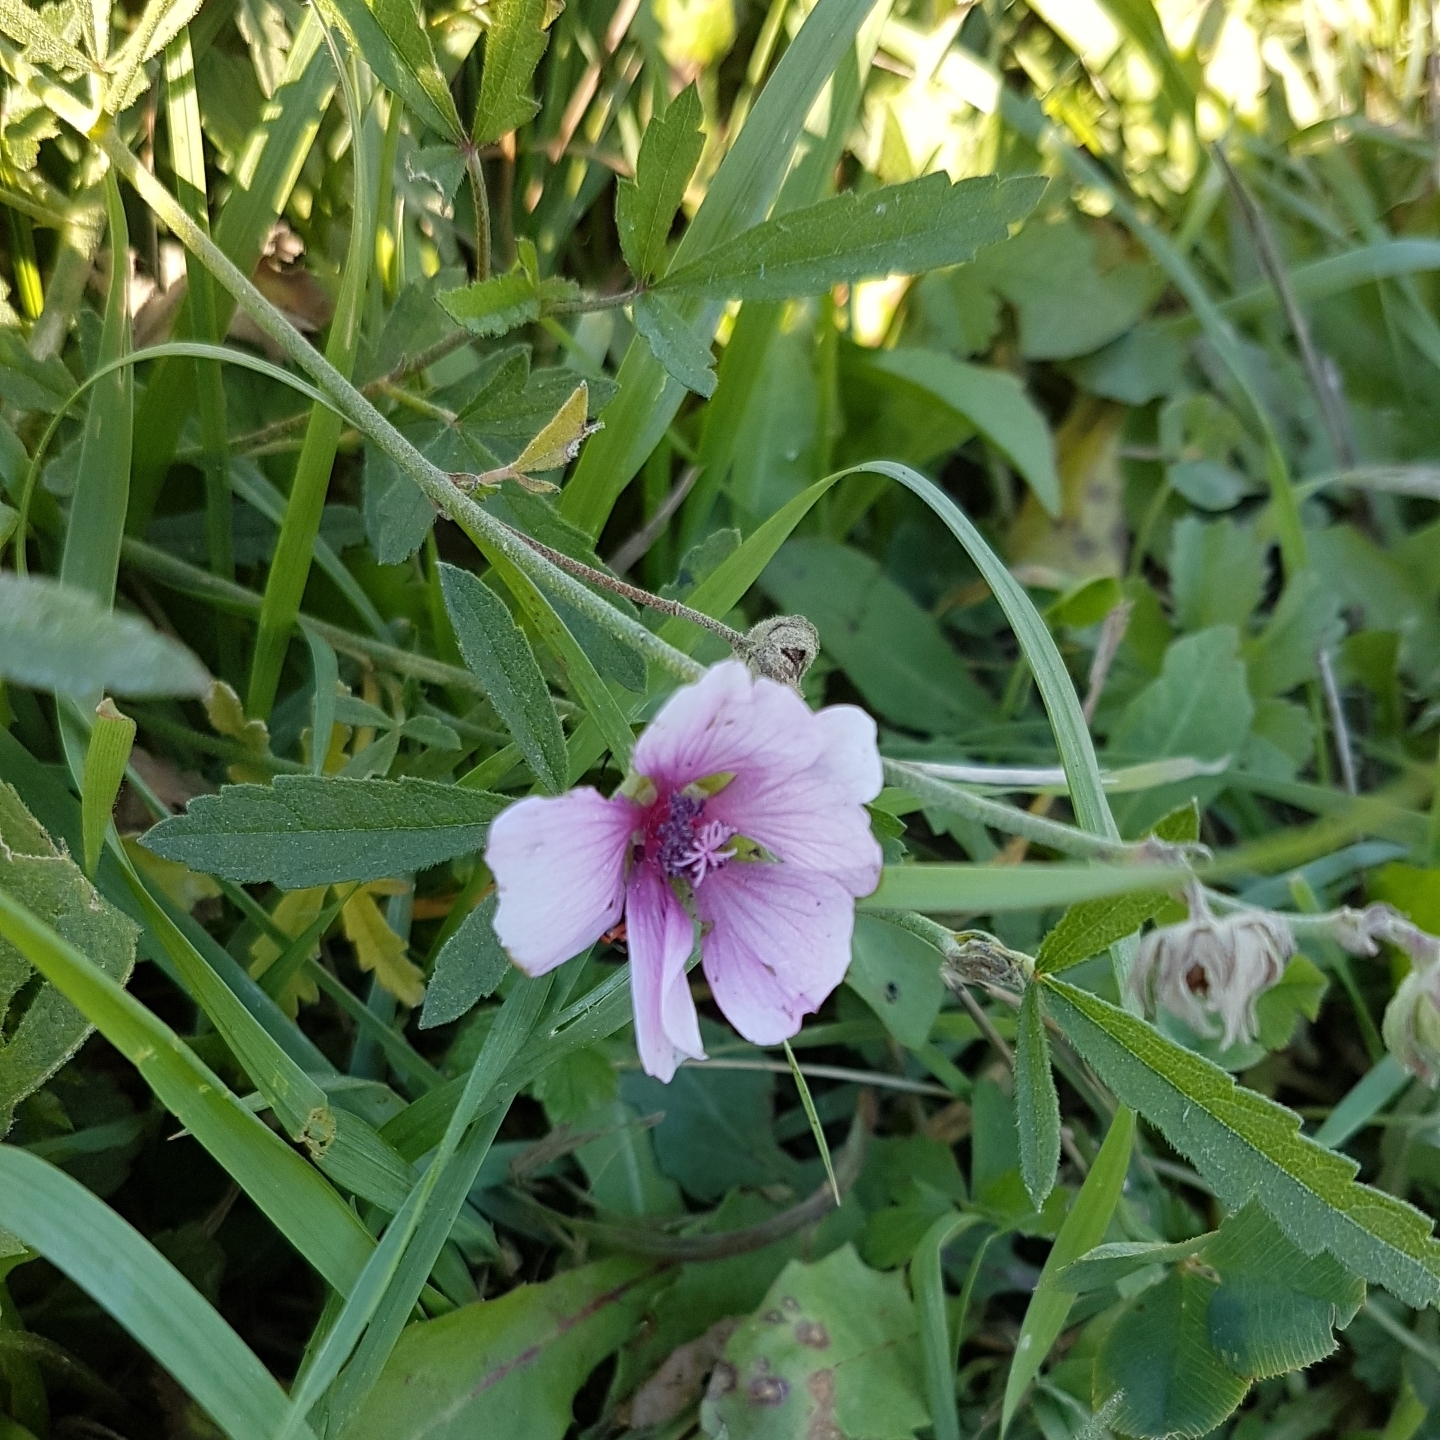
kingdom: Plantae
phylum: Tracheophyta
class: Magnoliopsida
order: Malvales
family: Malvaceae
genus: Althaea
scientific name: Althaea cannabina
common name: Palm-leaf marshmallow
